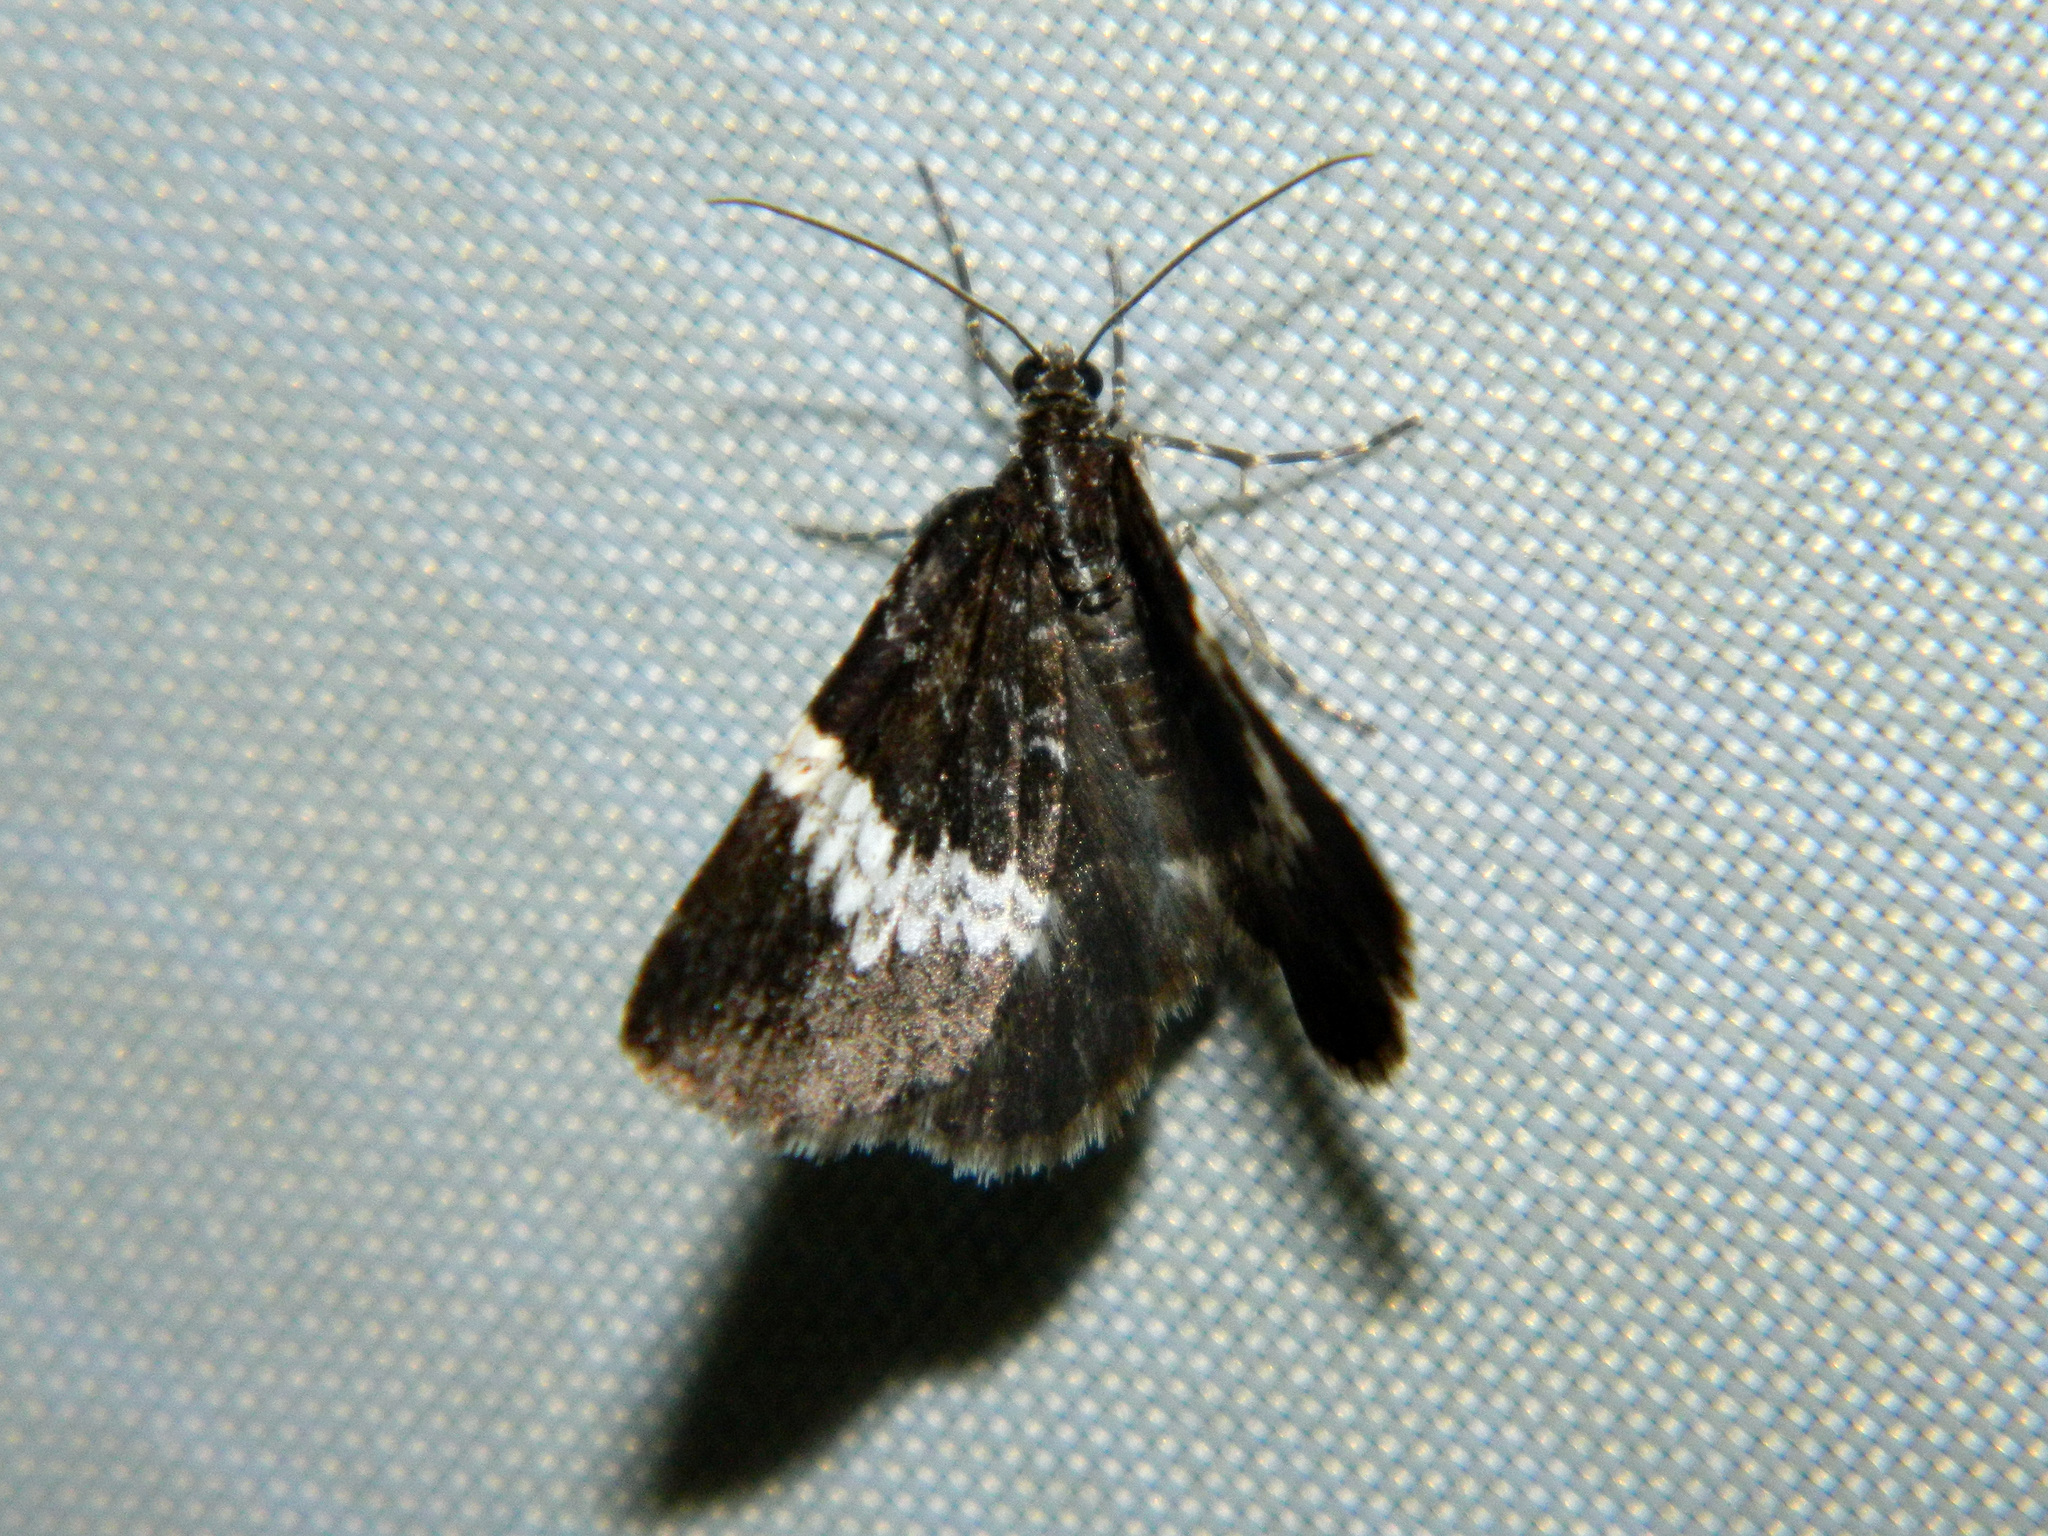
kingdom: Animalia
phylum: Arthropoda
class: Insecta
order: Lepidoptera
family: Geometridae
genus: Spargania
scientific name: Spargania luctuata
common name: White-banded carpet
